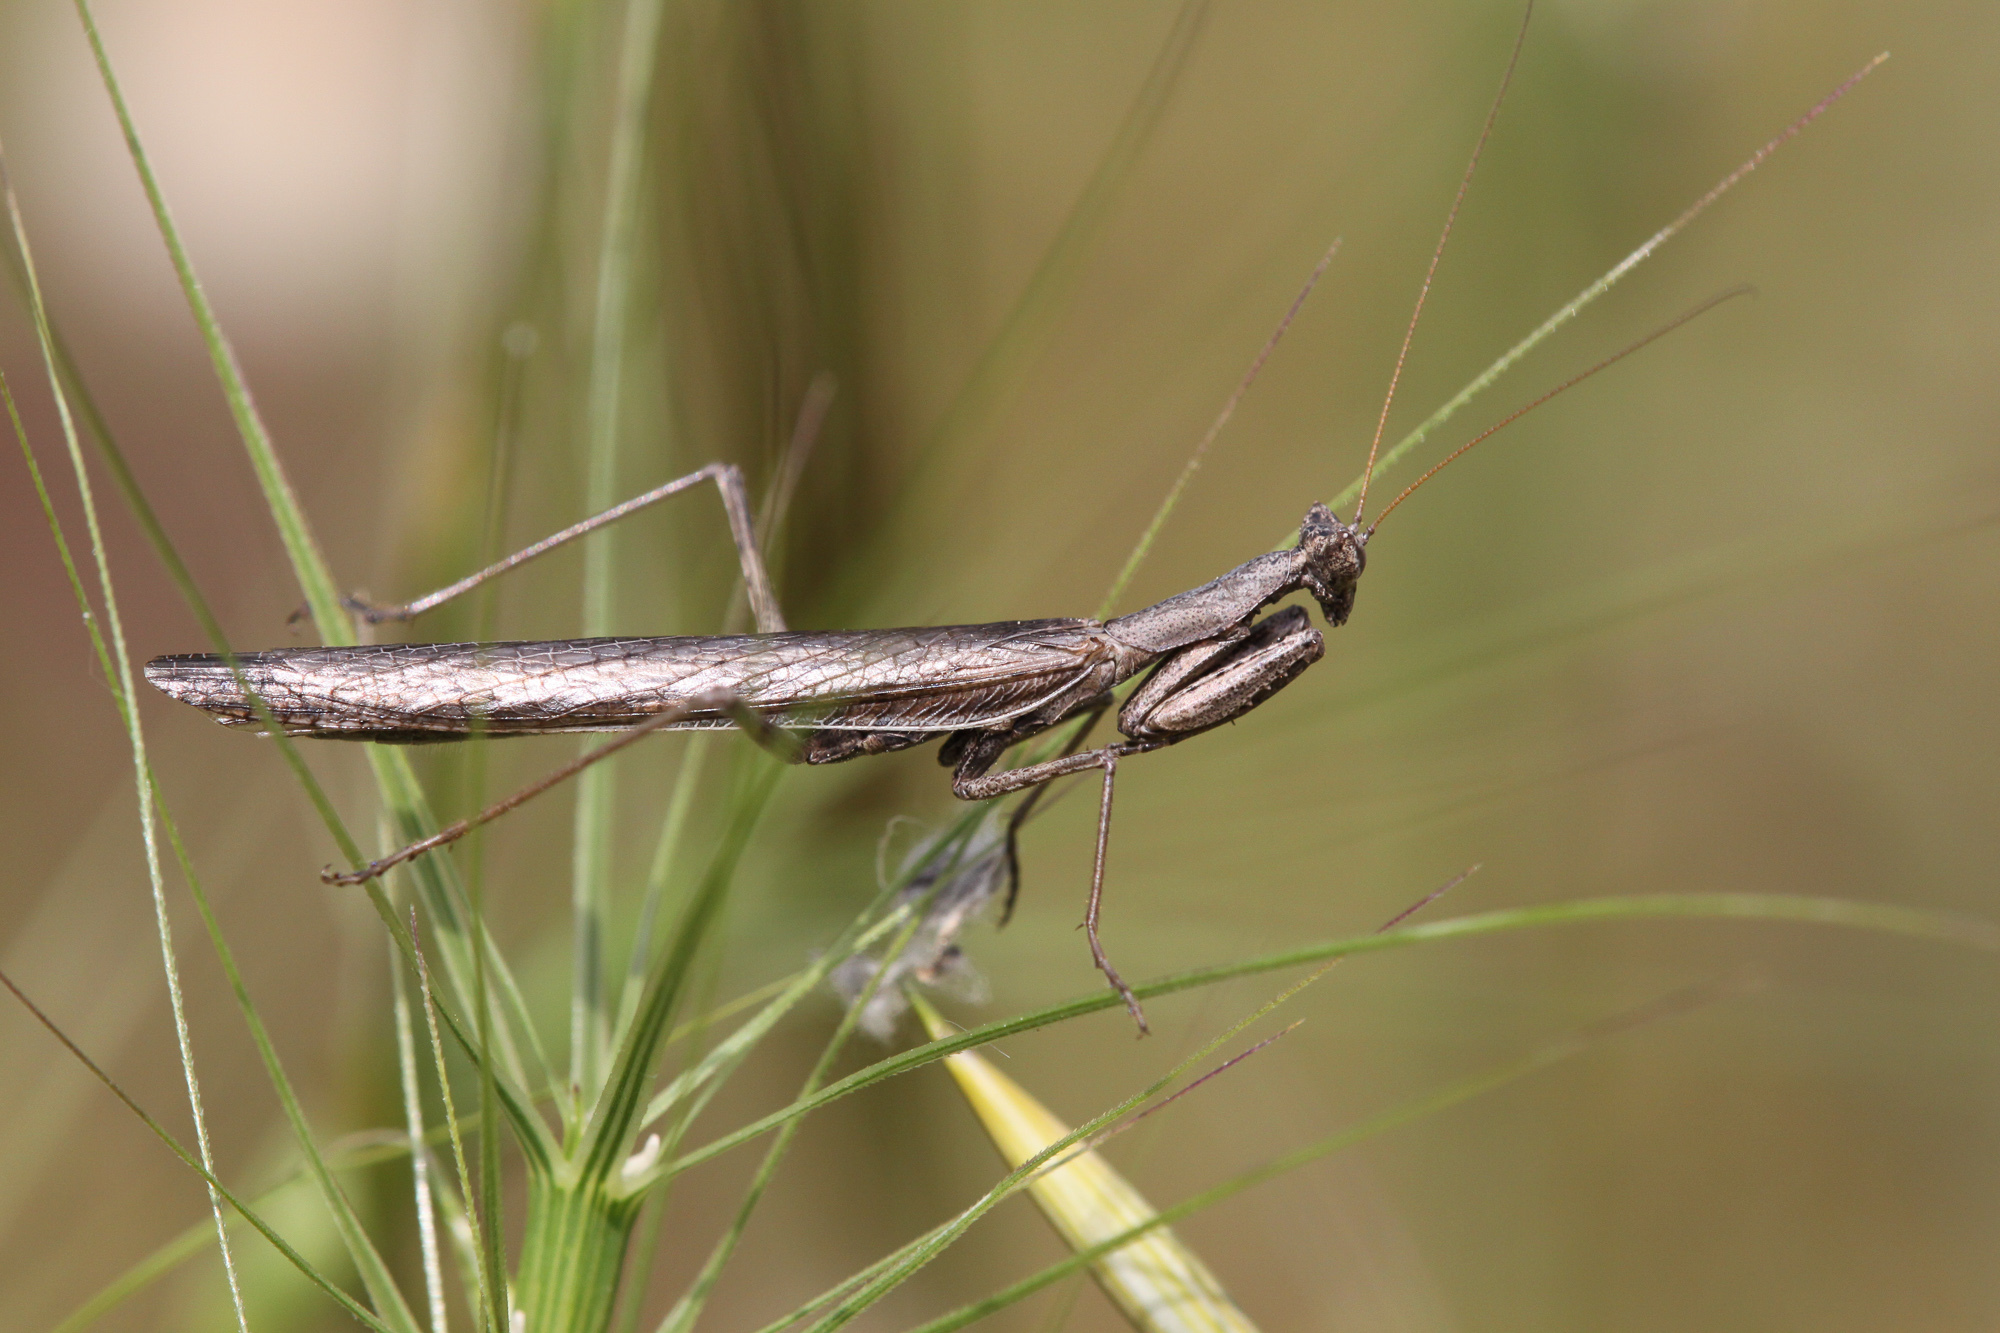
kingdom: Animalia
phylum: Arthropoda
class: Insecta
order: Mantodea
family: Amelidae
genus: Ameles
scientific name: Ameles heldreichi
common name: Heldreich's dwarf mantis
